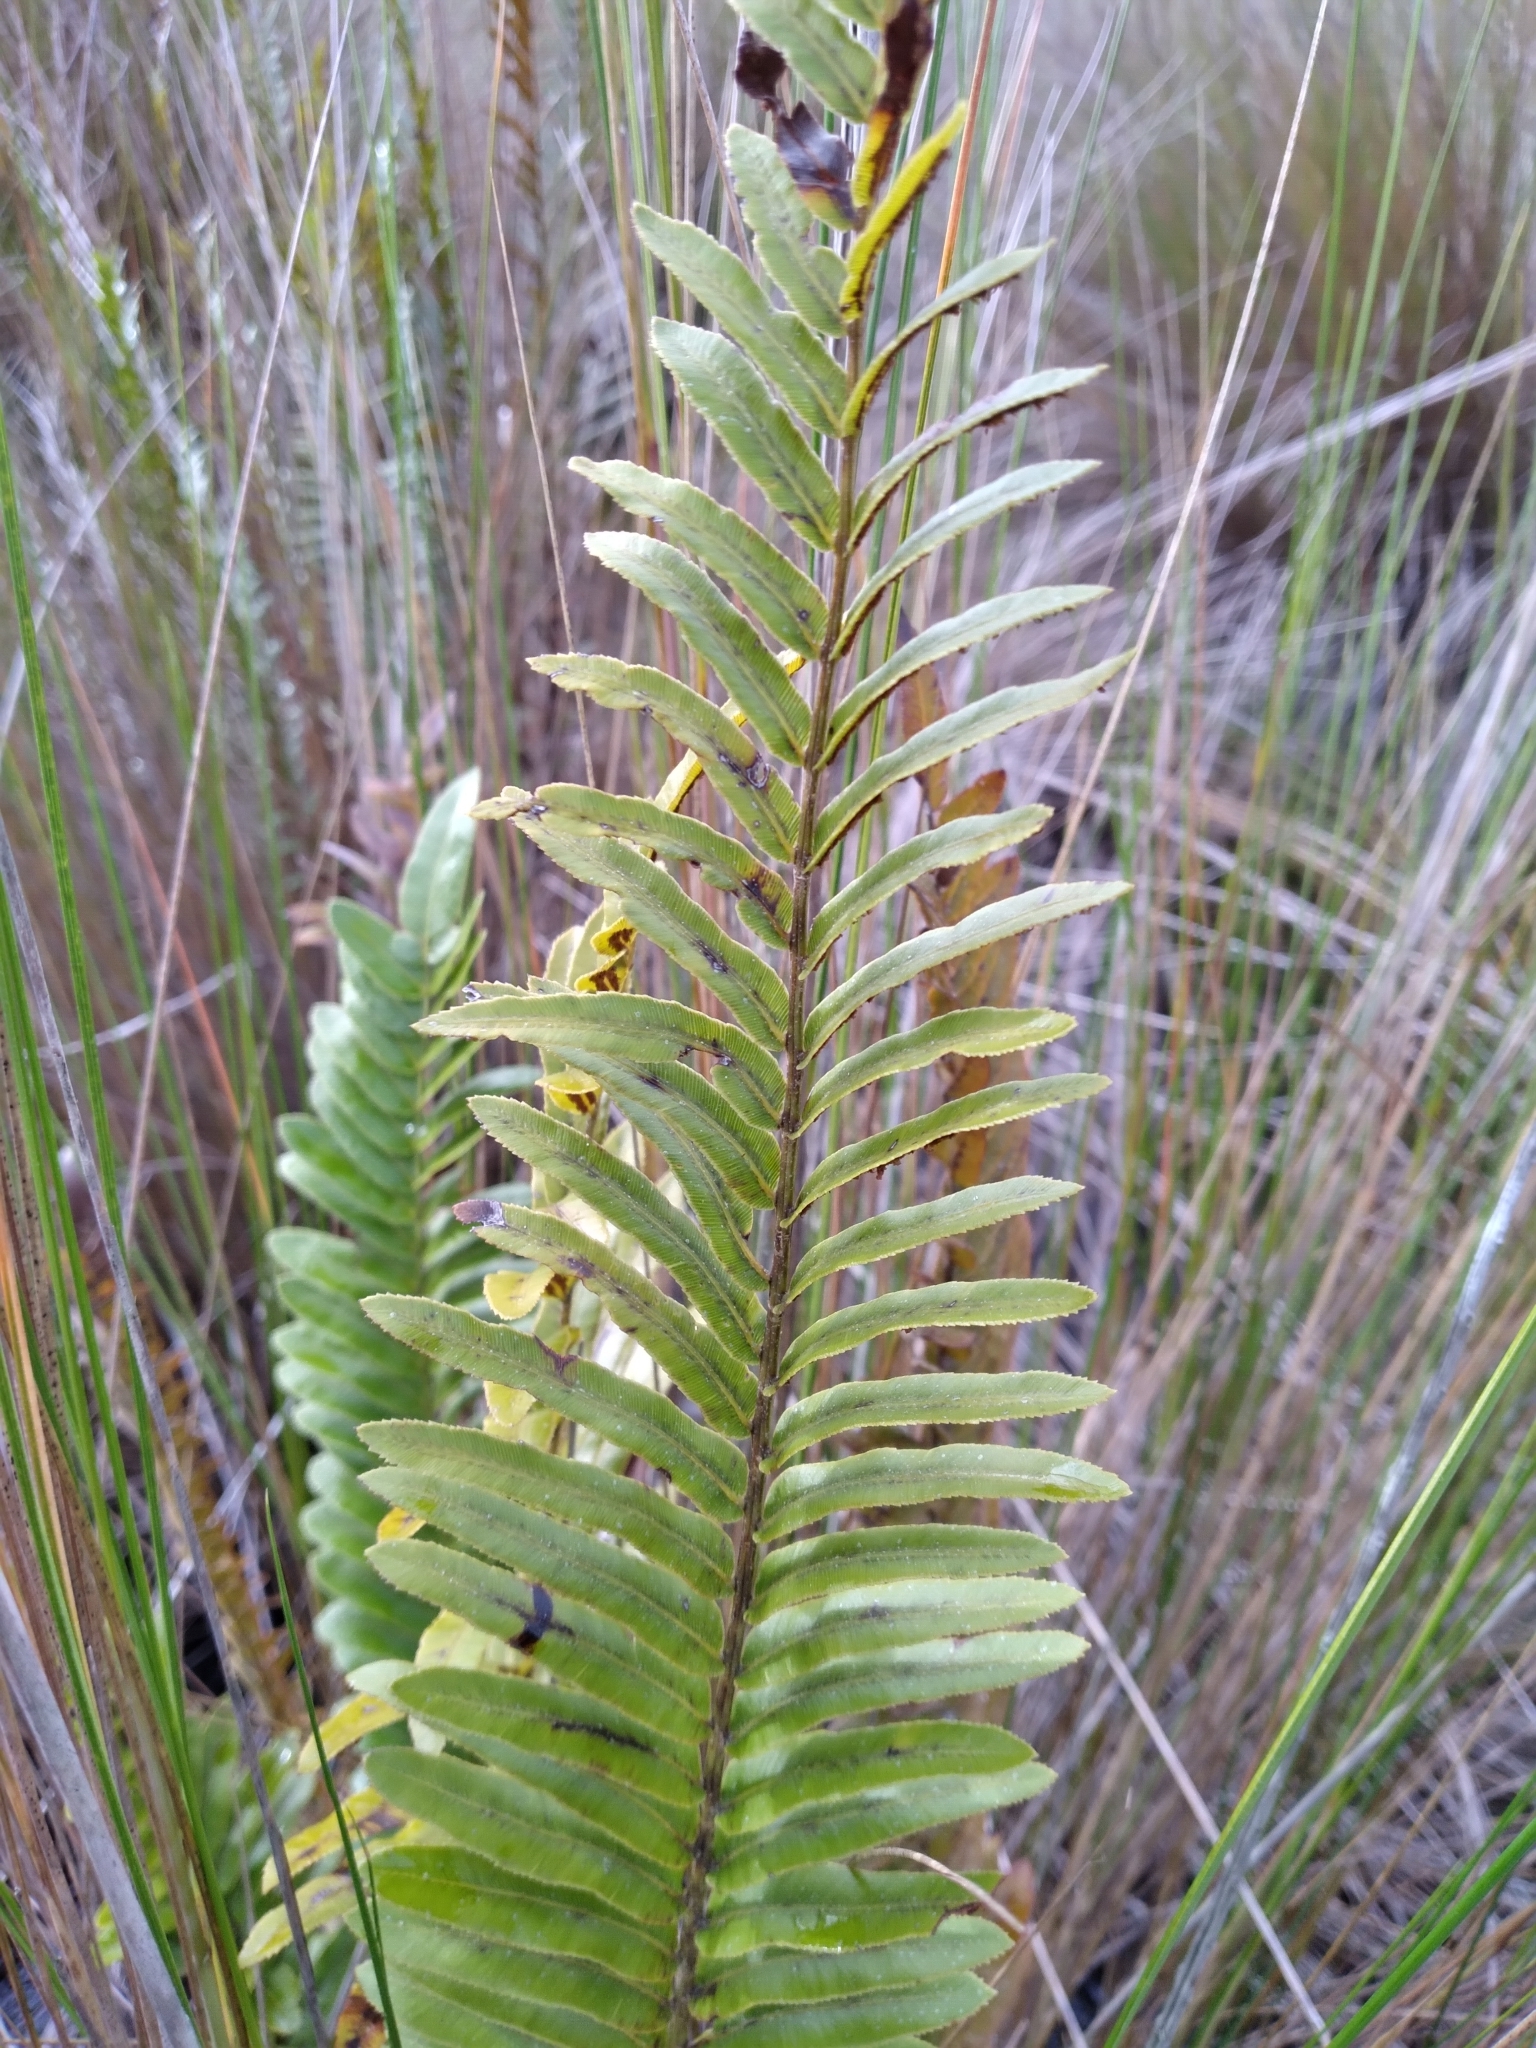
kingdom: Plantae
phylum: Tracheophyta
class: Polypodiopsida
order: Polypodiales
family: Blechnaceae
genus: Telmatoblechnum
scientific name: Telmatoblechnum serrulatum
